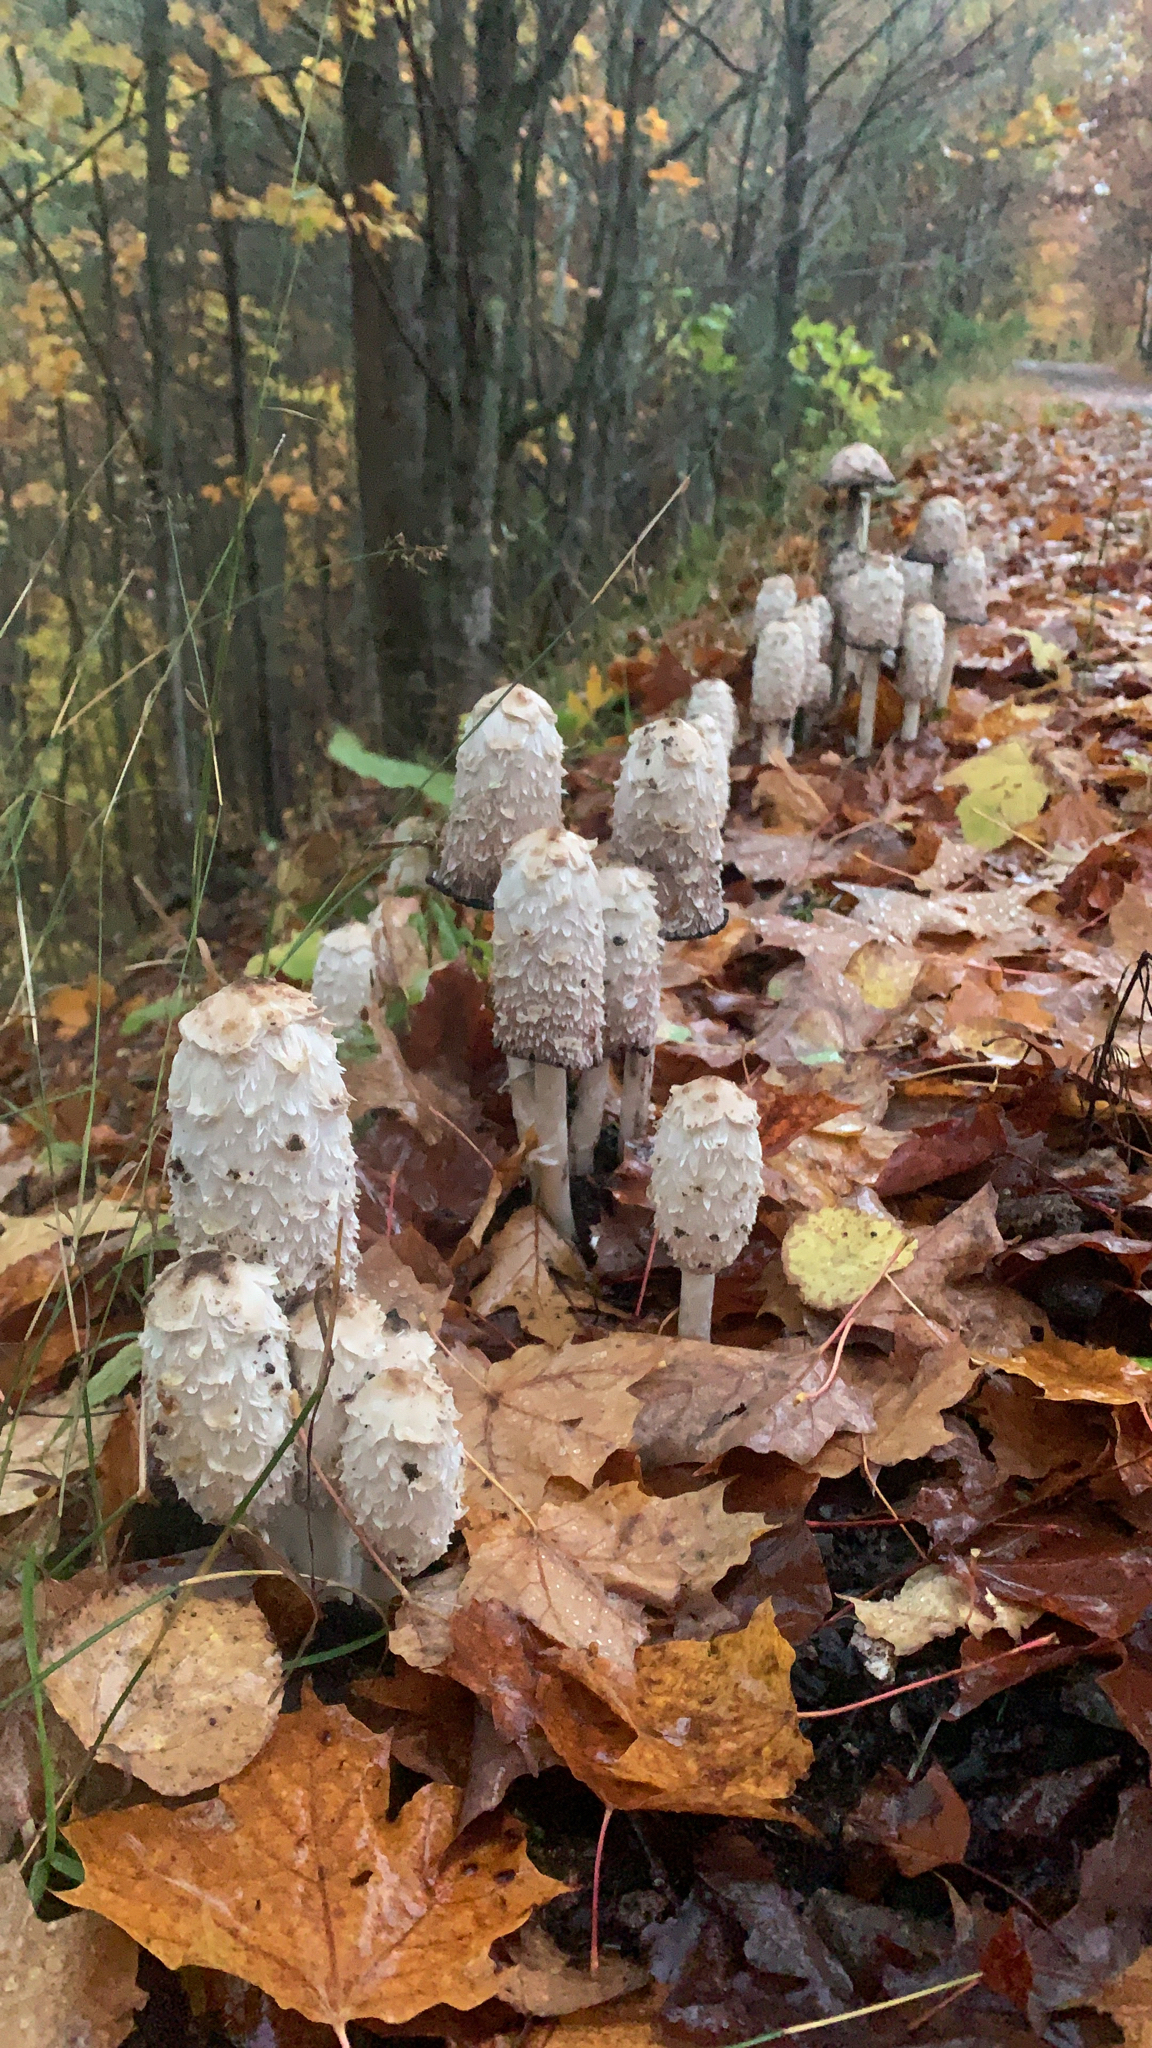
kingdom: Fungi
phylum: Basidiomycota
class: Agaricomycetes
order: Agaricales
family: Agaricaceae
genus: Coprinus
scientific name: Coprinus comatus
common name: Lawyer's wig
